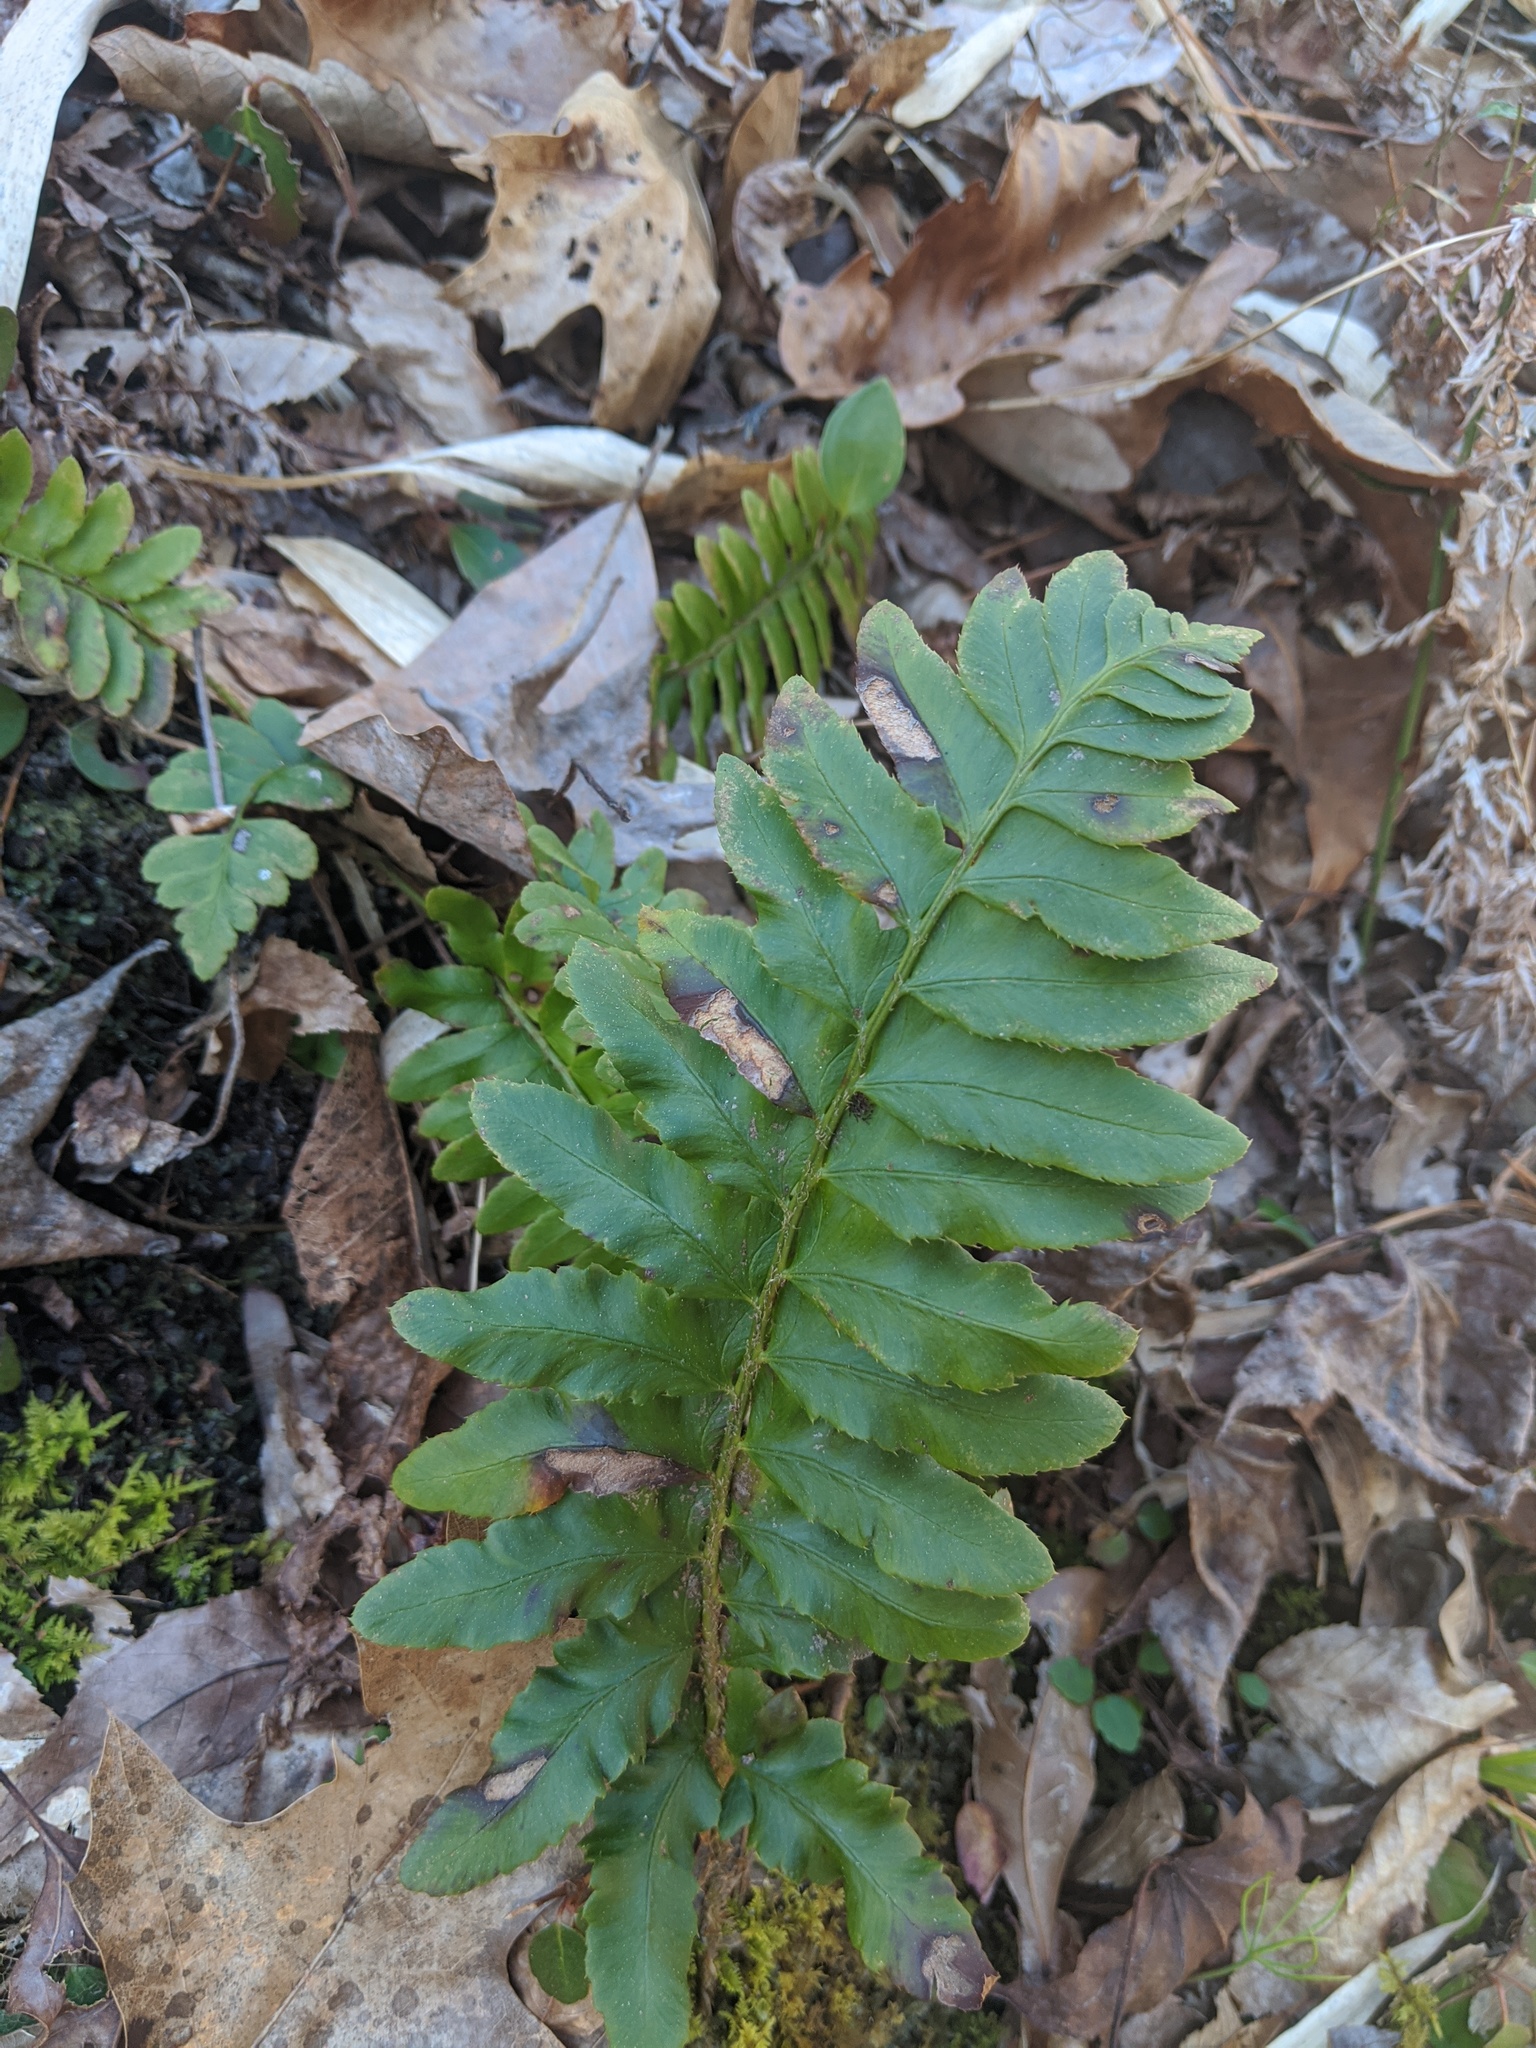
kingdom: Plantae
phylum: Tracheophyta
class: Polypodiopsida
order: Polypodiales
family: Dryopteridaceae
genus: Polystichum
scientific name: Polystichum acrostichoides
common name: Christmas fern
